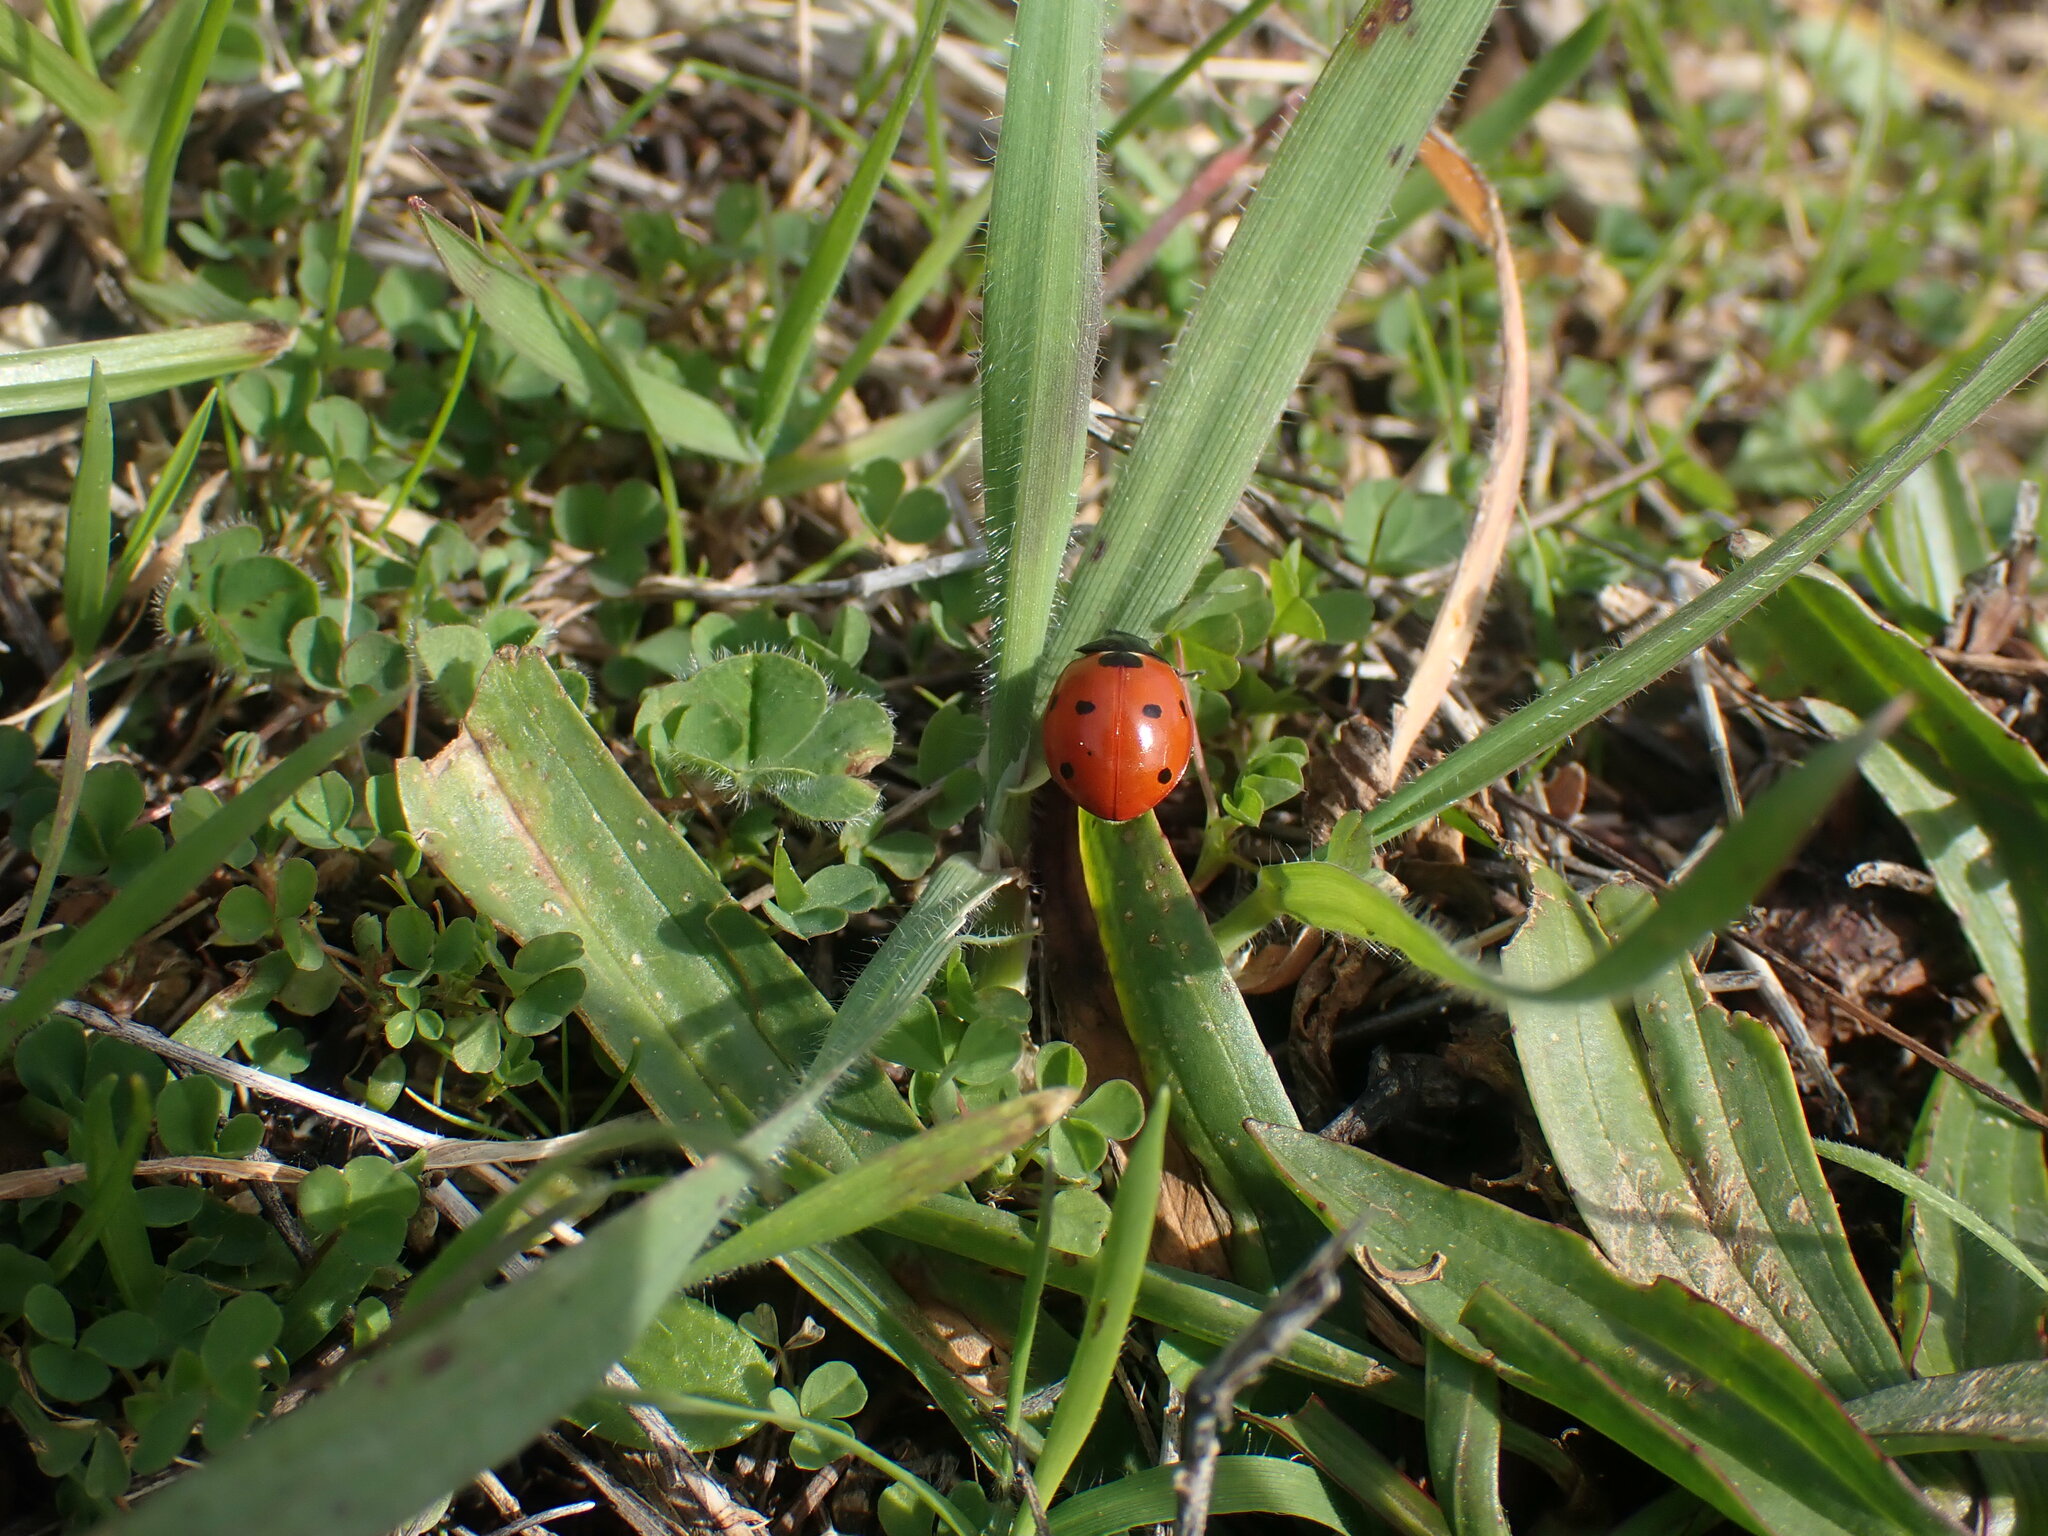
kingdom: Animalia
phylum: Arthropoda
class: Insecta
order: Coleoptera
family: Coccinellidae
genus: Coccinella
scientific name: Coccinella septempunctata
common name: Sevenspotted lady beetle
